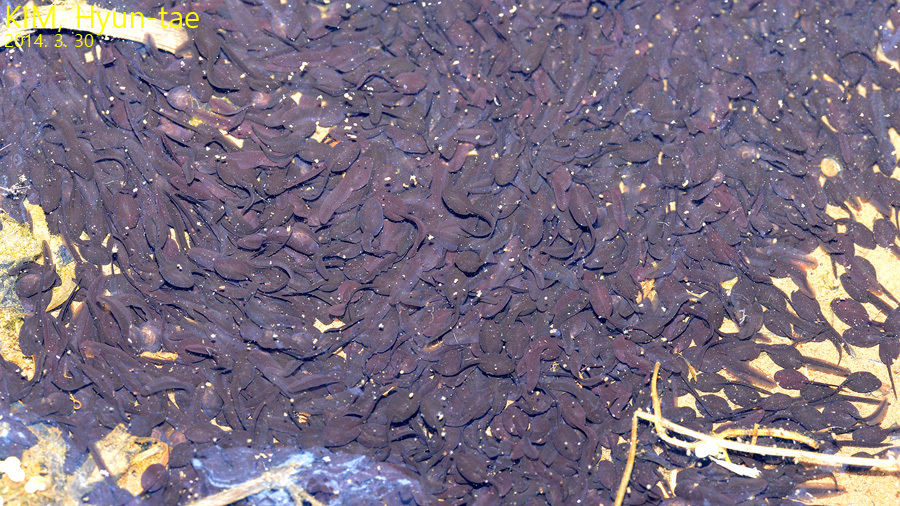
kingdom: Animalia
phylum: Chordata
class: Amphibia
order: Anura
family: Bufonidae
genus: Bufo
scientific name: Bufo gargarizans
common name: Asiatic toad
